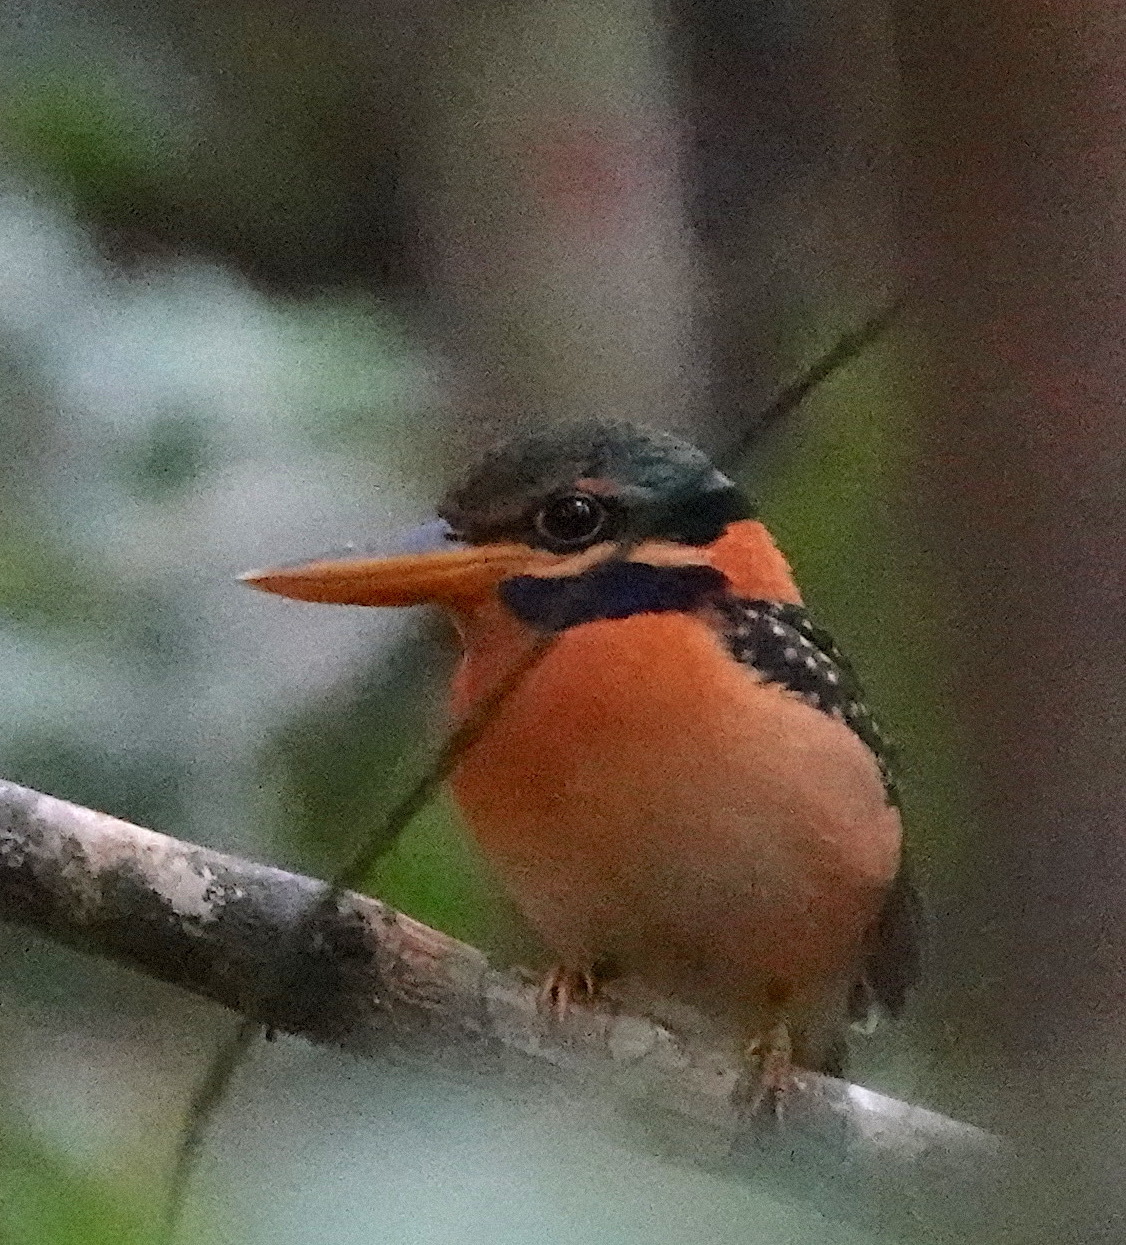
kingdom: Animalia
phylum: Chordata
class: Aves
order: Coraciiformes
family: Alcedinidae
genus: Actenoides
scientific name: Actenoides concretus
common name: Rufous-collared kingfisher
